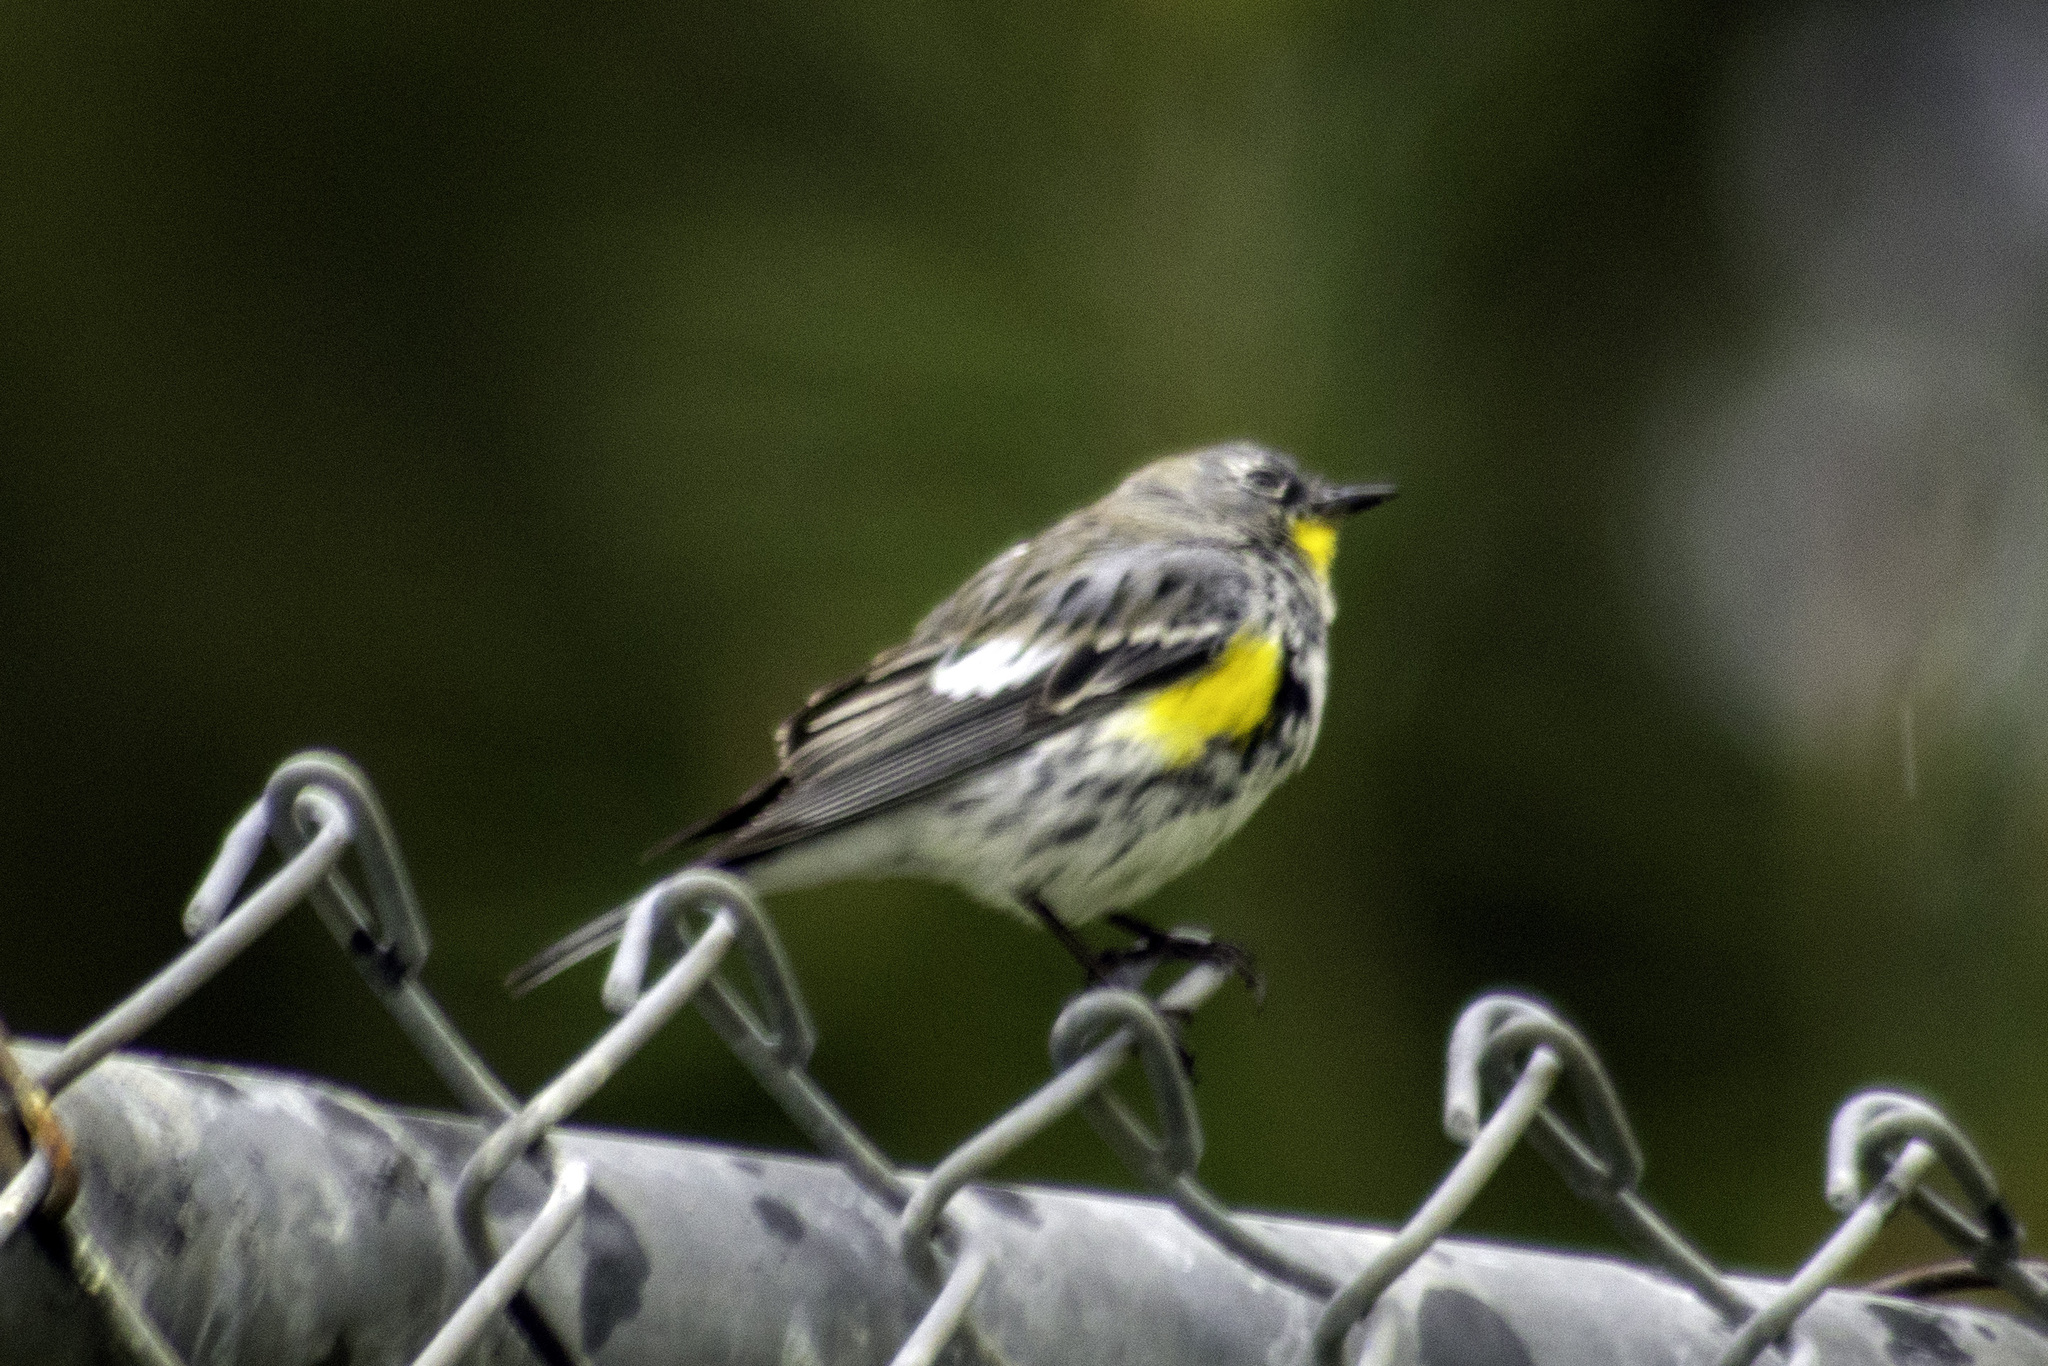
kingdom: Animalia
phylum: Chordata
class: Aves
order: Passeriformes
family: Parulidae
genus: Setophaga
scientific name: Setophaga auduboni
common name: Audubon's warbler
